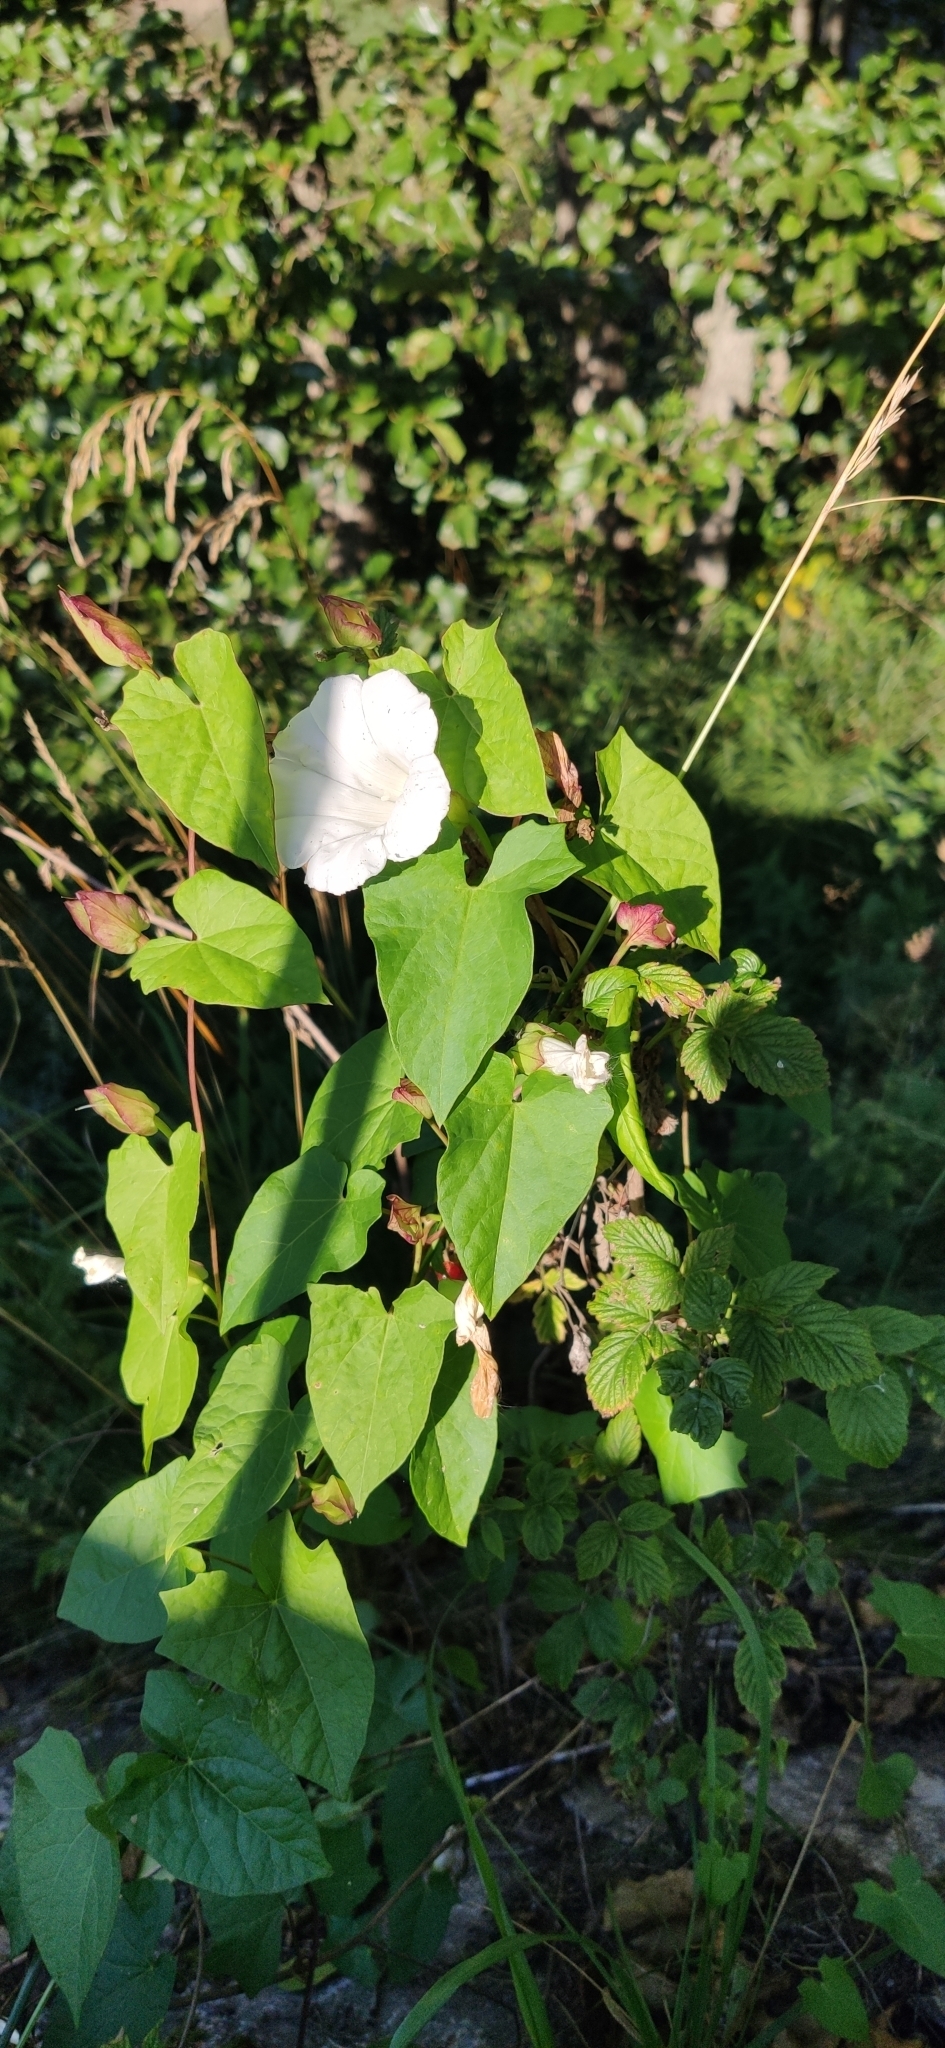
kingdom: Plantae
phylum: Tracheophyta
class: Magnoliopsida
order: Solanales
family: Convolvulaceae
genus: Calystegia
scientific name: Calystegia sepium
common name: Hedge bindweed
